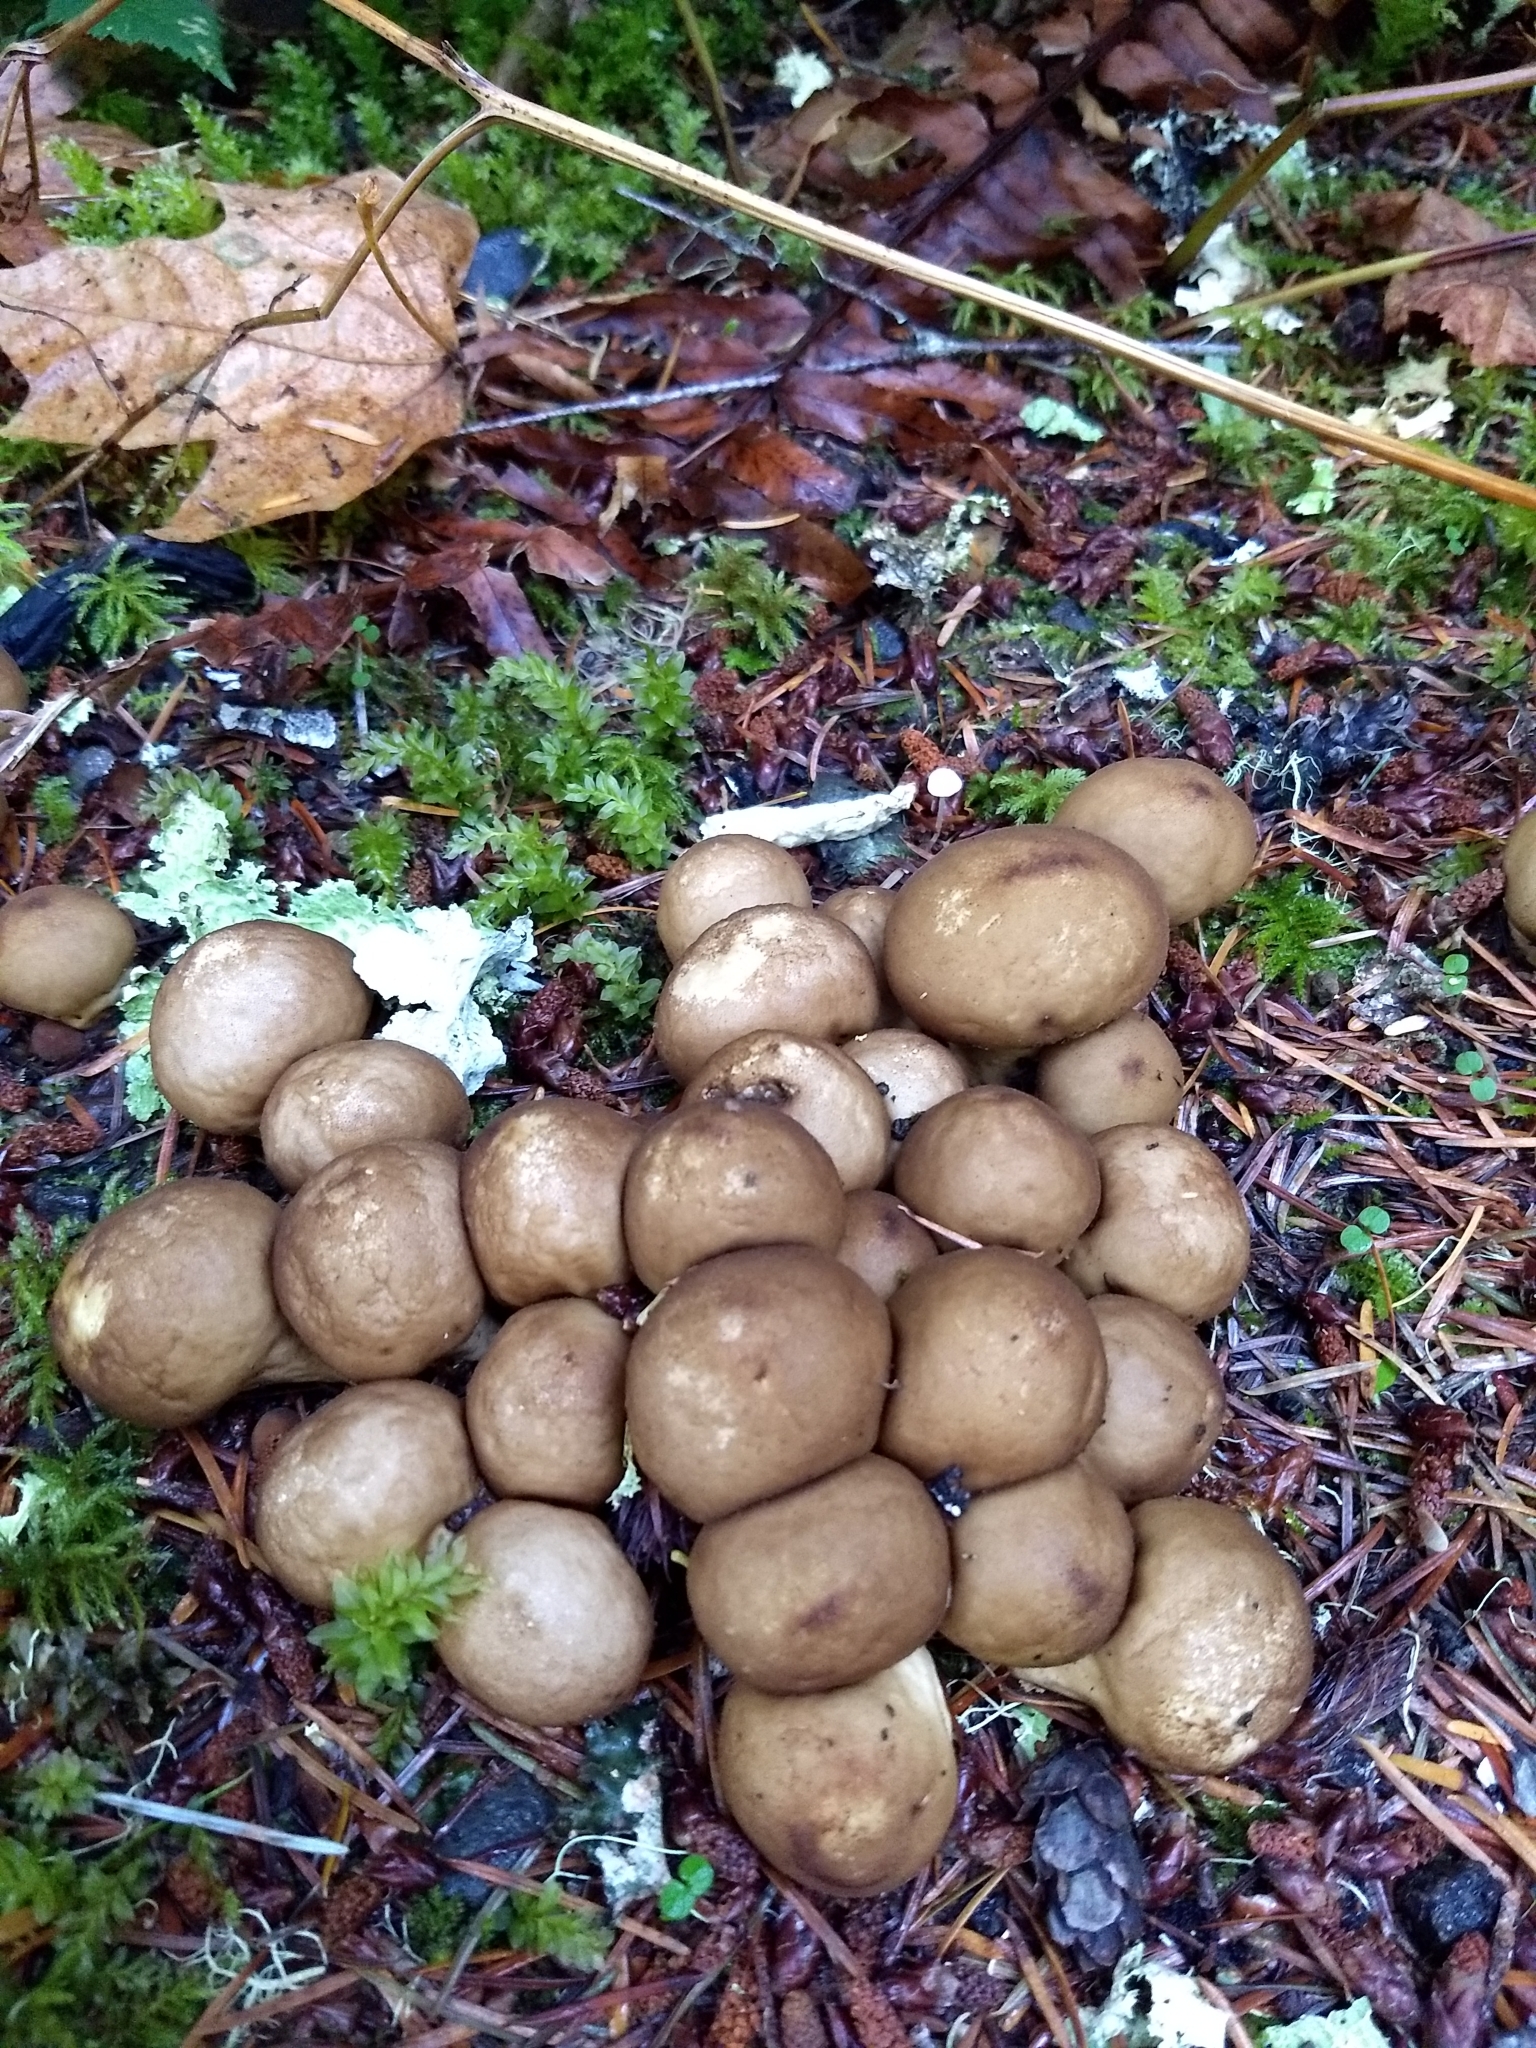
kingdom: Fungi
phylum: Basidiomycota
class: Agaricomycetes
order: Agaricales
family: Lycoperdaceae
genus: Apioperdon
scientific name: Apioperdon pyriforme
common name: Pear-shaped puffball
